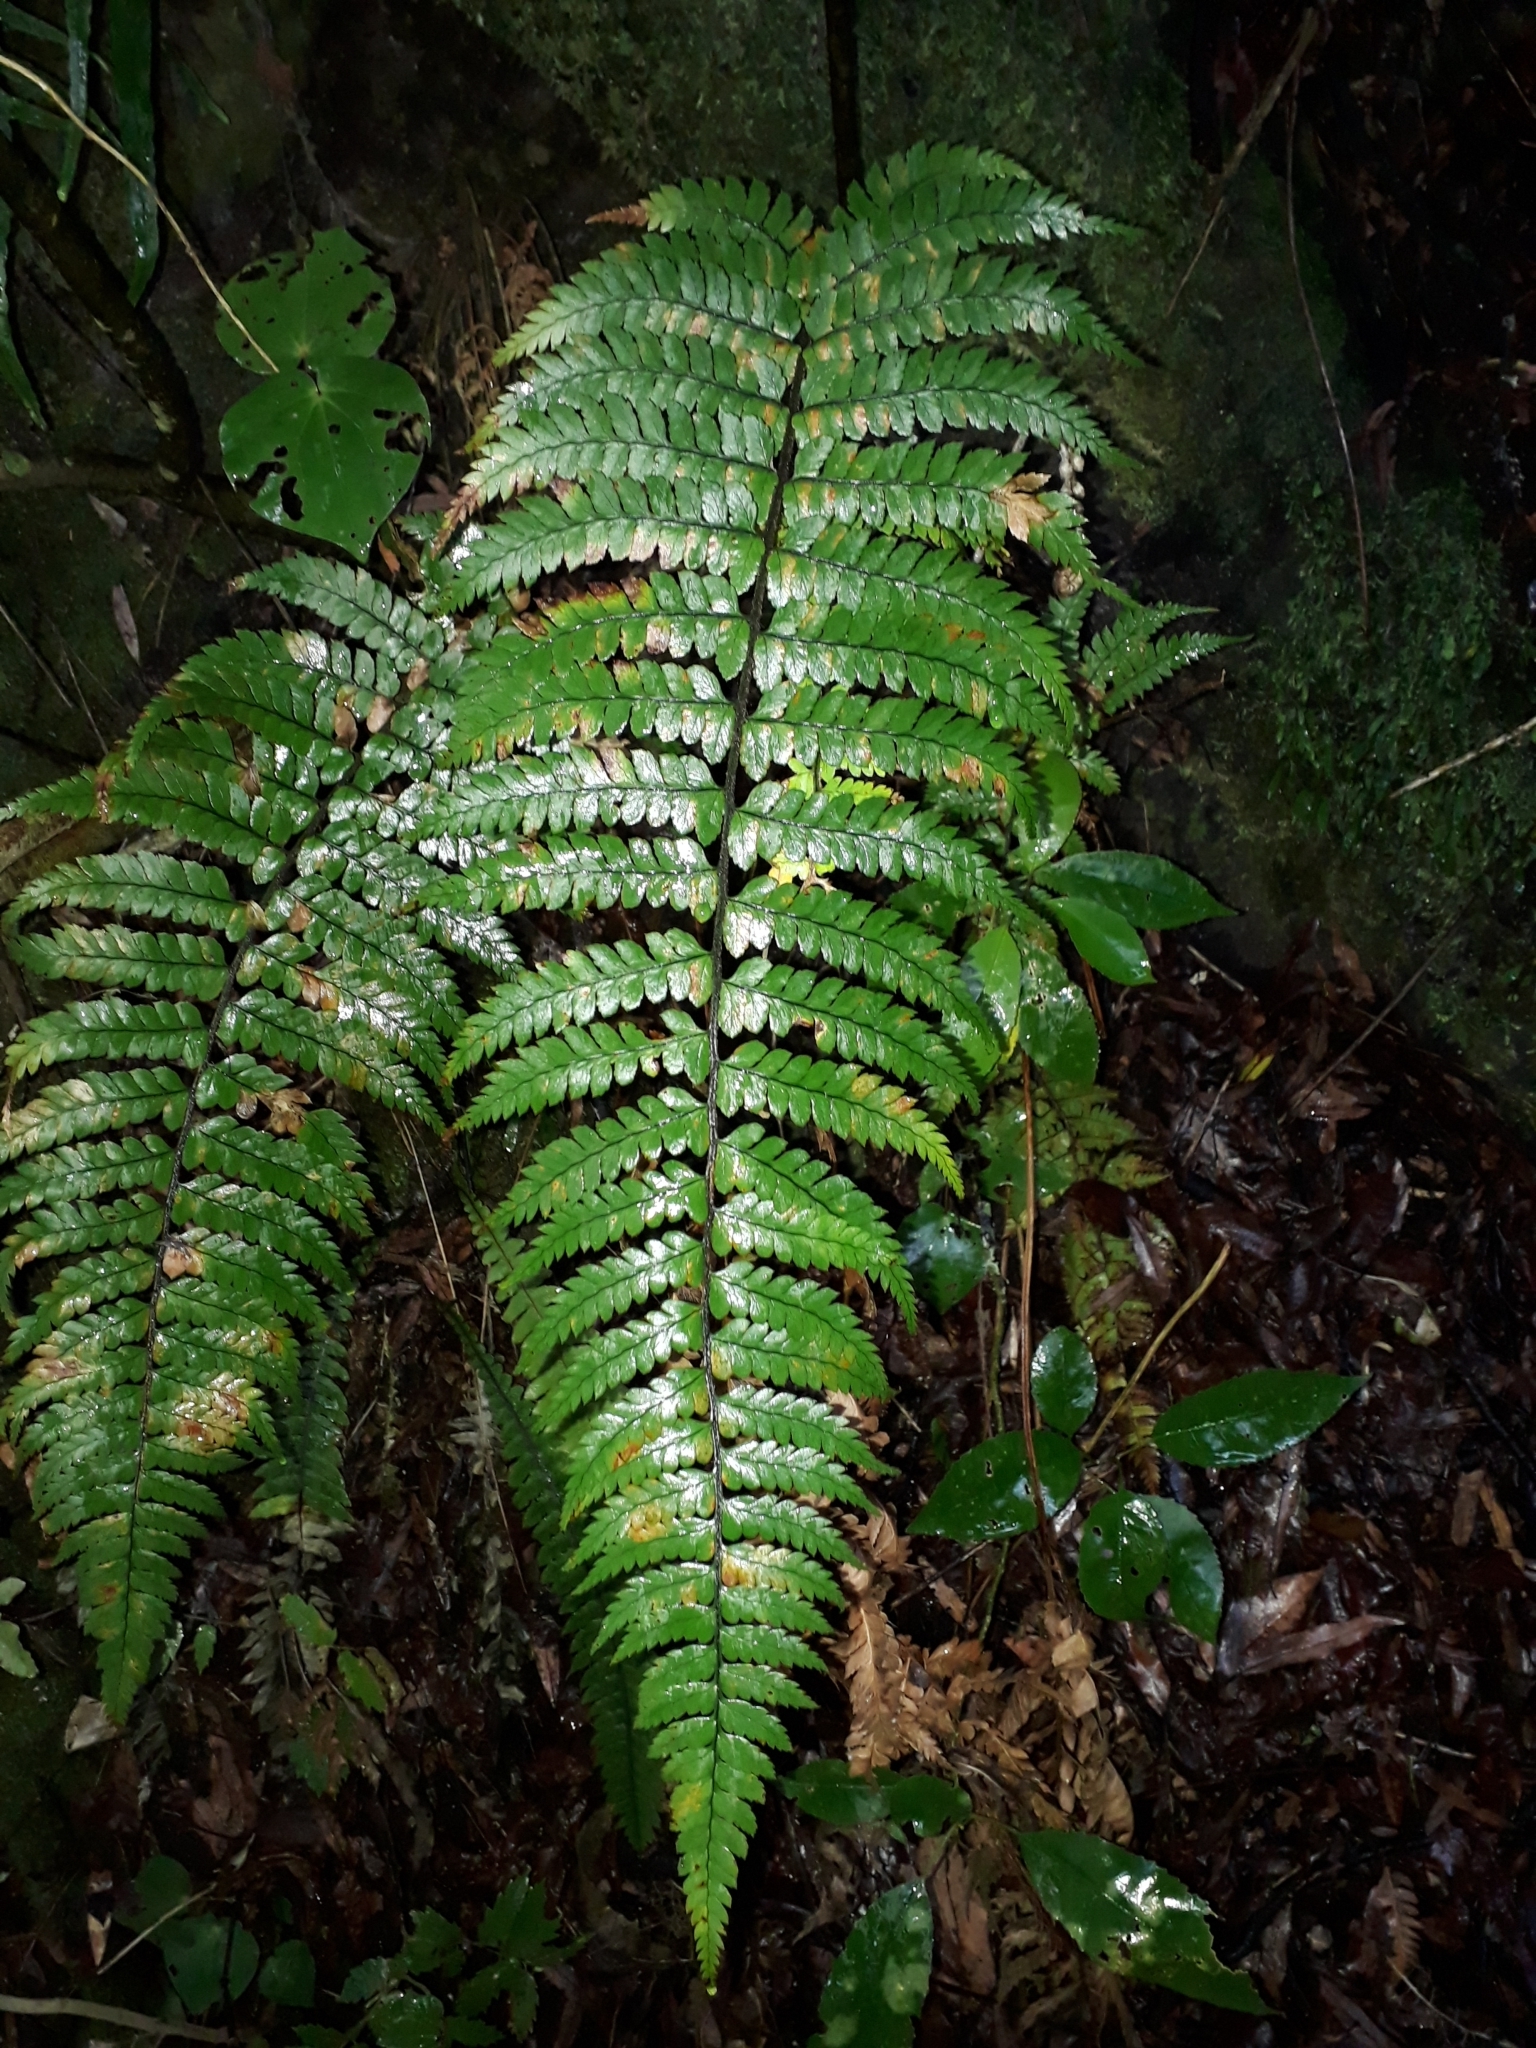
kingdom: Plantae
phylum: Tracheophyta
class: Polypodiopsida
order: Polypodiales
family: Dryopteridaceae
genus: Polystichum
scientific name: Polystichum wawranum
